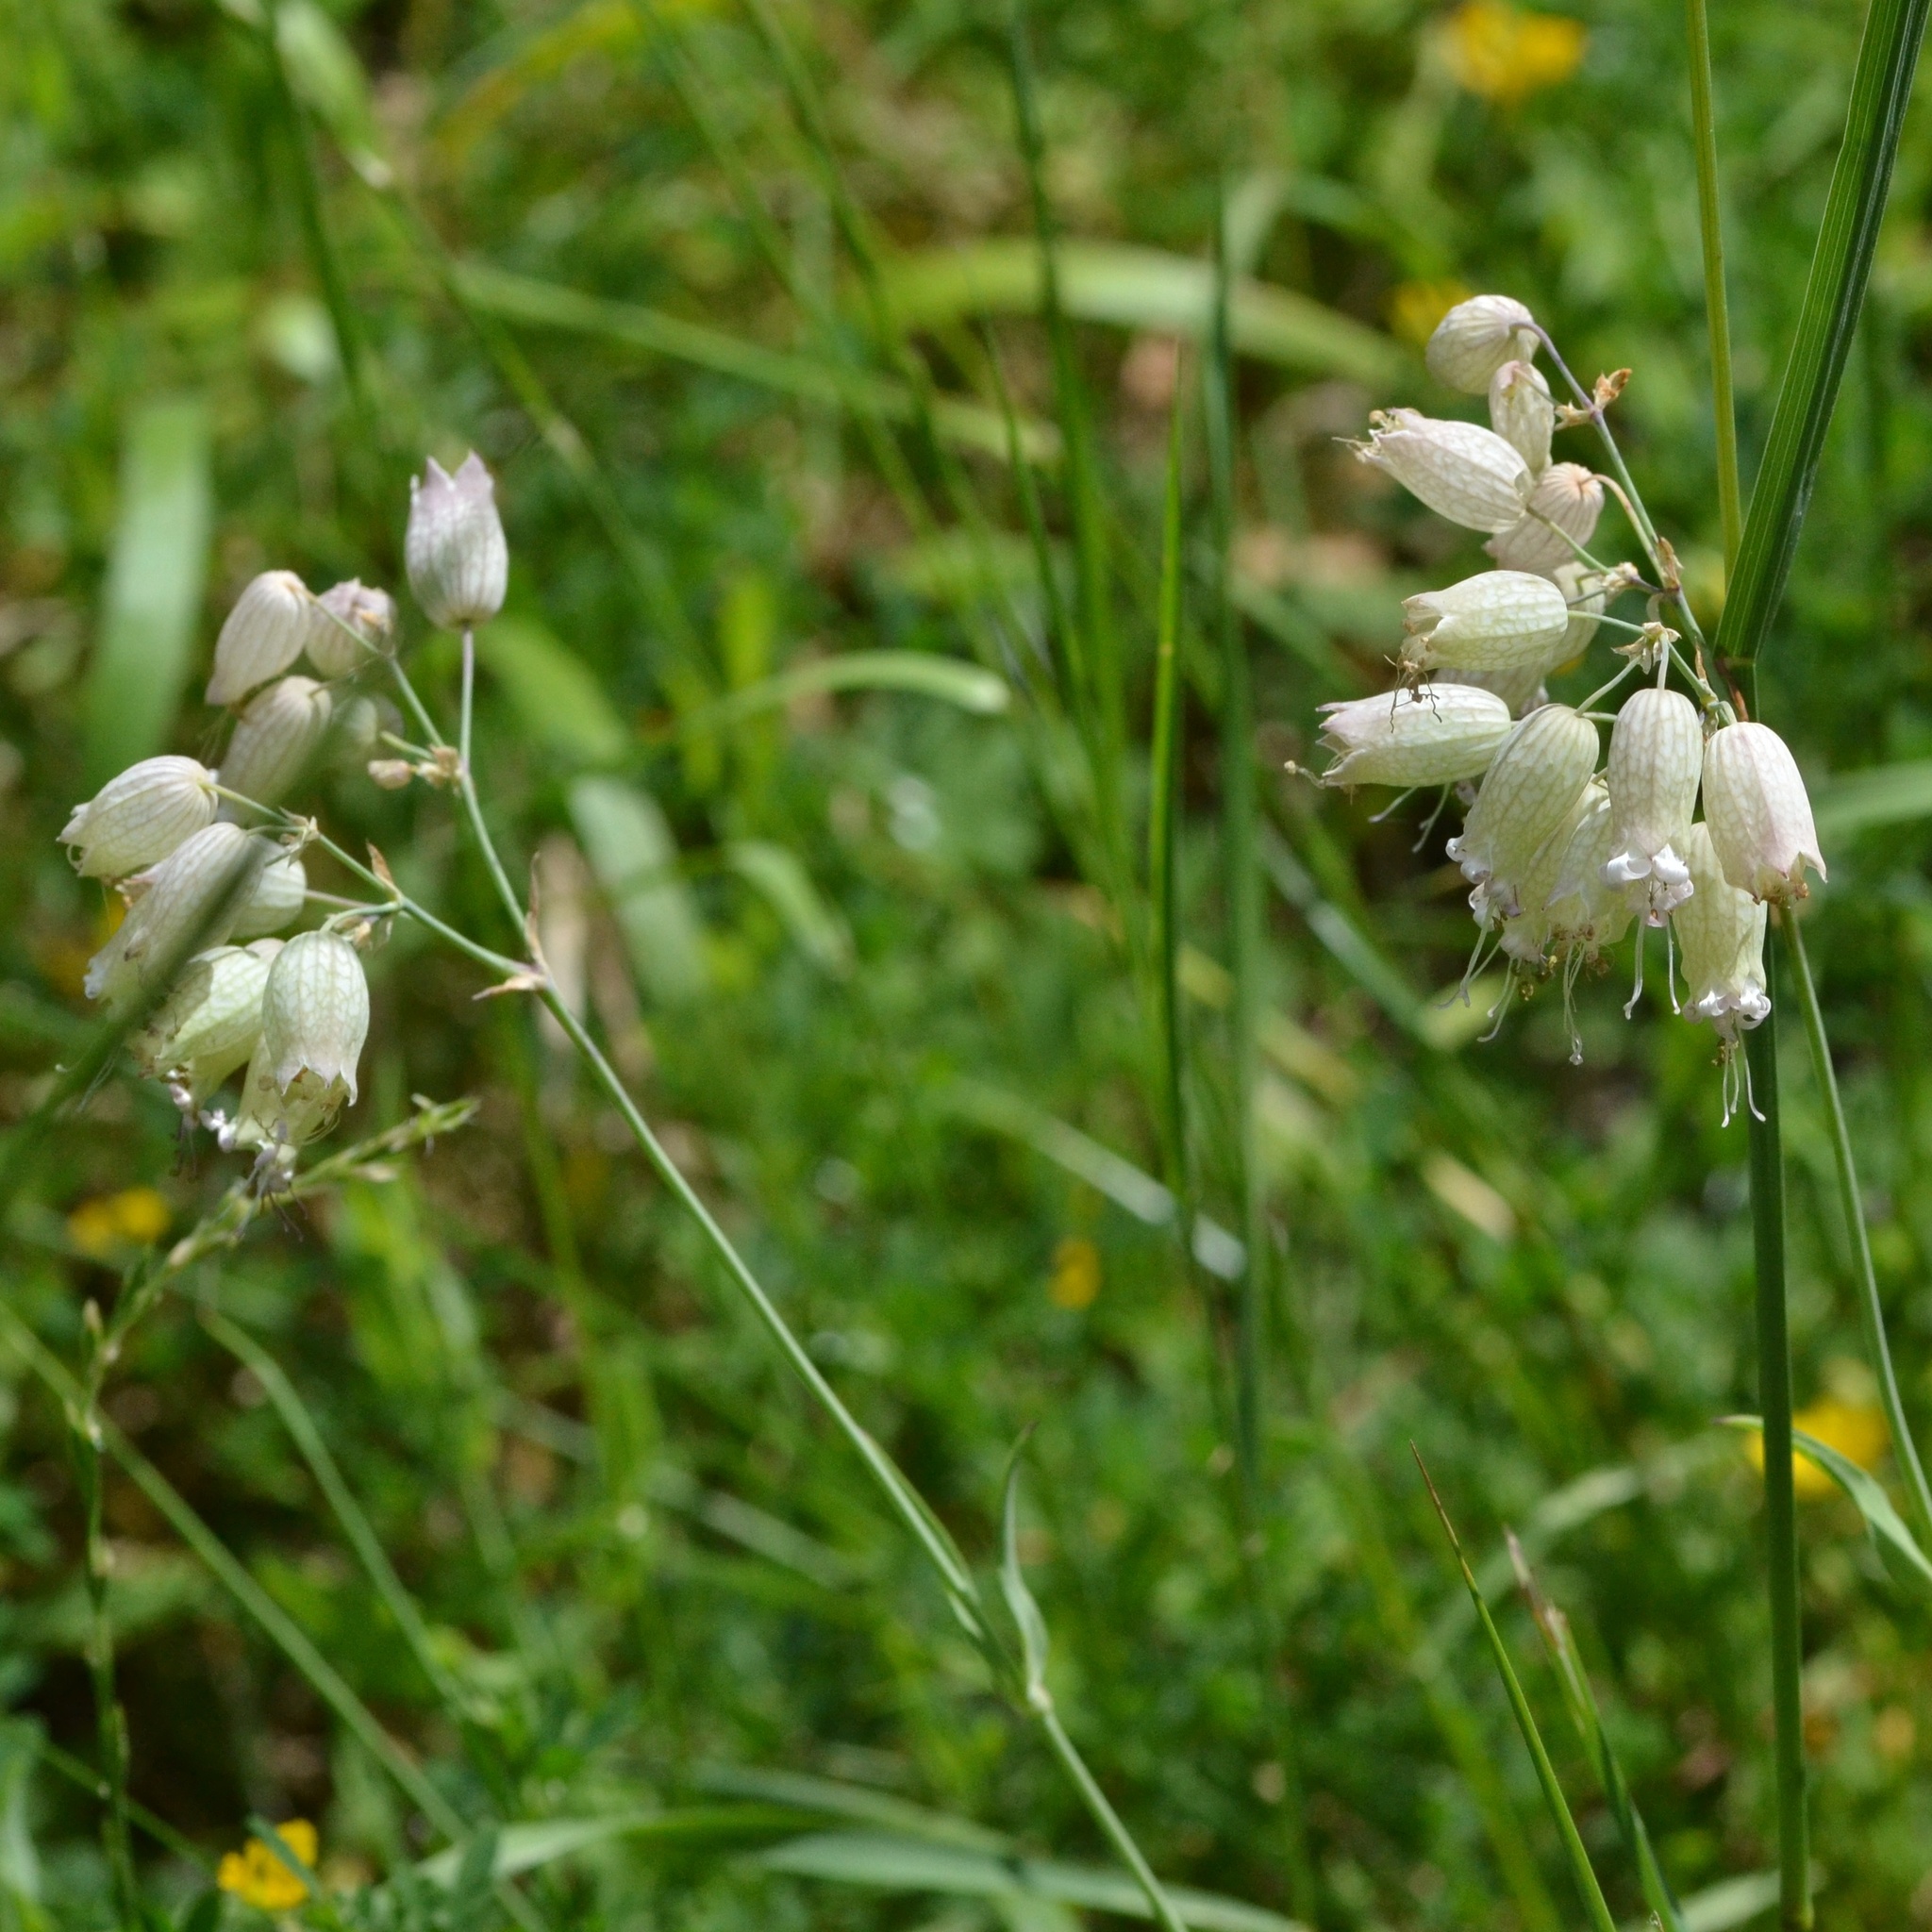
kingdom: Plantae
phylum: Tracheophyta
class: Magnoliopsida
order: Caryophyllales
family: Caryophyllaceae
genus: Silene
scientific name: Silene vulgaris
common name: Bladder campion
